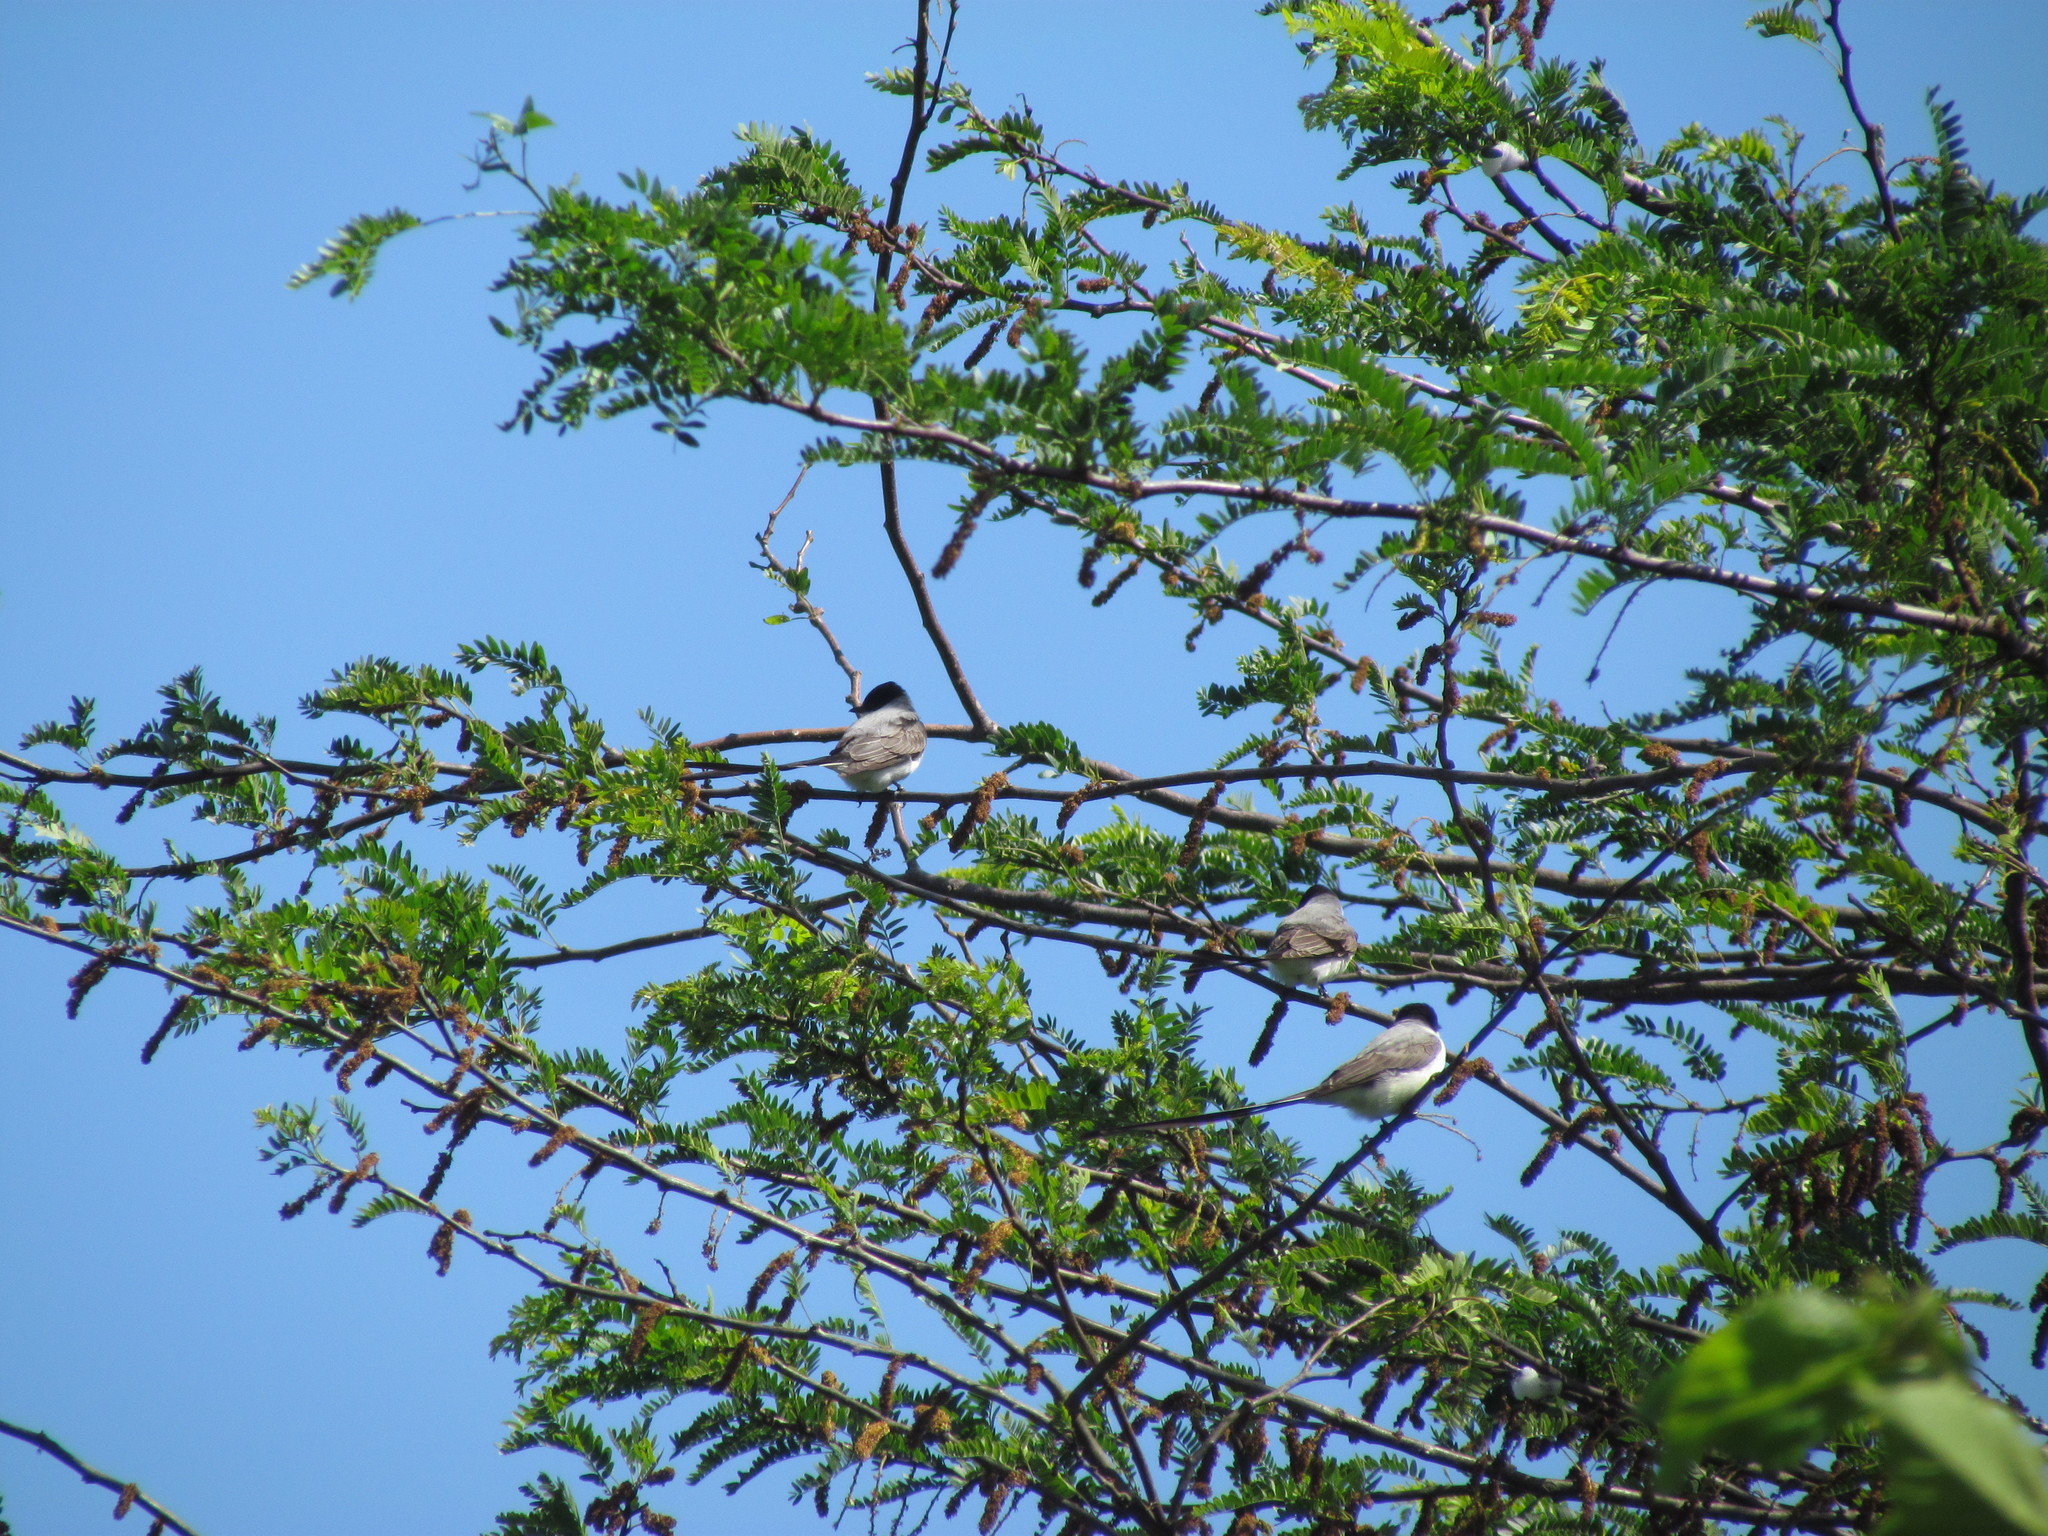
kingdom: Animalia
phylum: Chordata
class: Aves
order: Passeriformes
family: Tyrannidae
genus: Tyrannus
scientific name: Tyrannus savana
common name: Fork-tailed flycatcher
